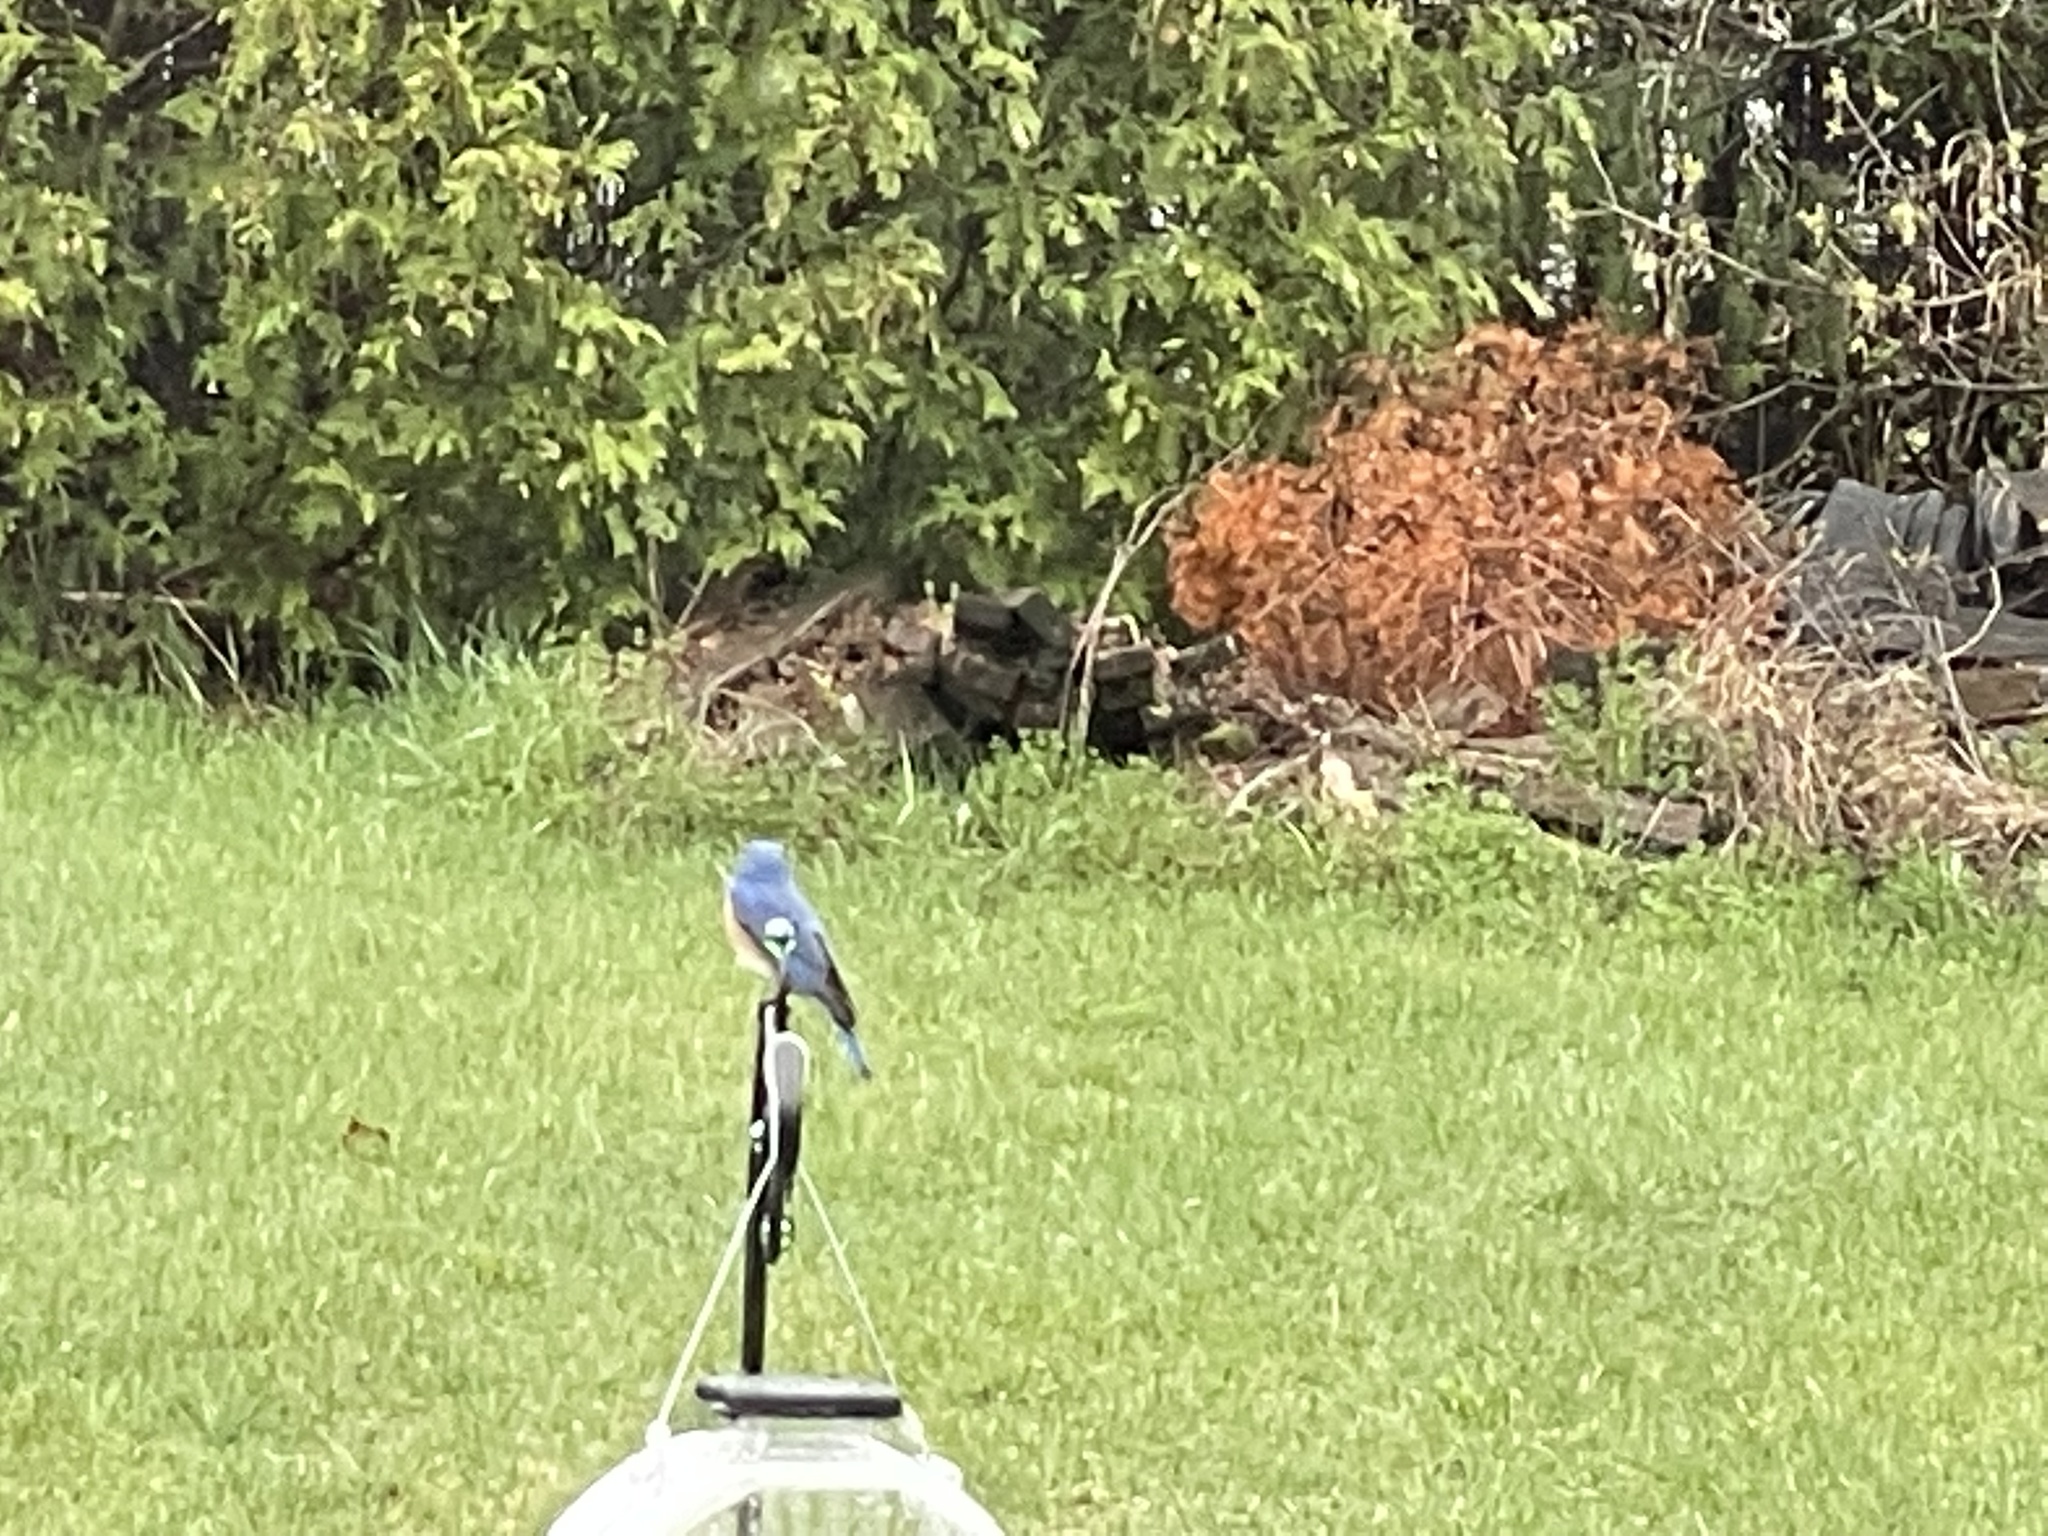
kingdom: Animalia
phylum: Chordata
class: Aves
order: Passeriformes
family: Turdidae
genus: Sialia
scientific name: Sialia sialis
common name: Eastern bluebird
